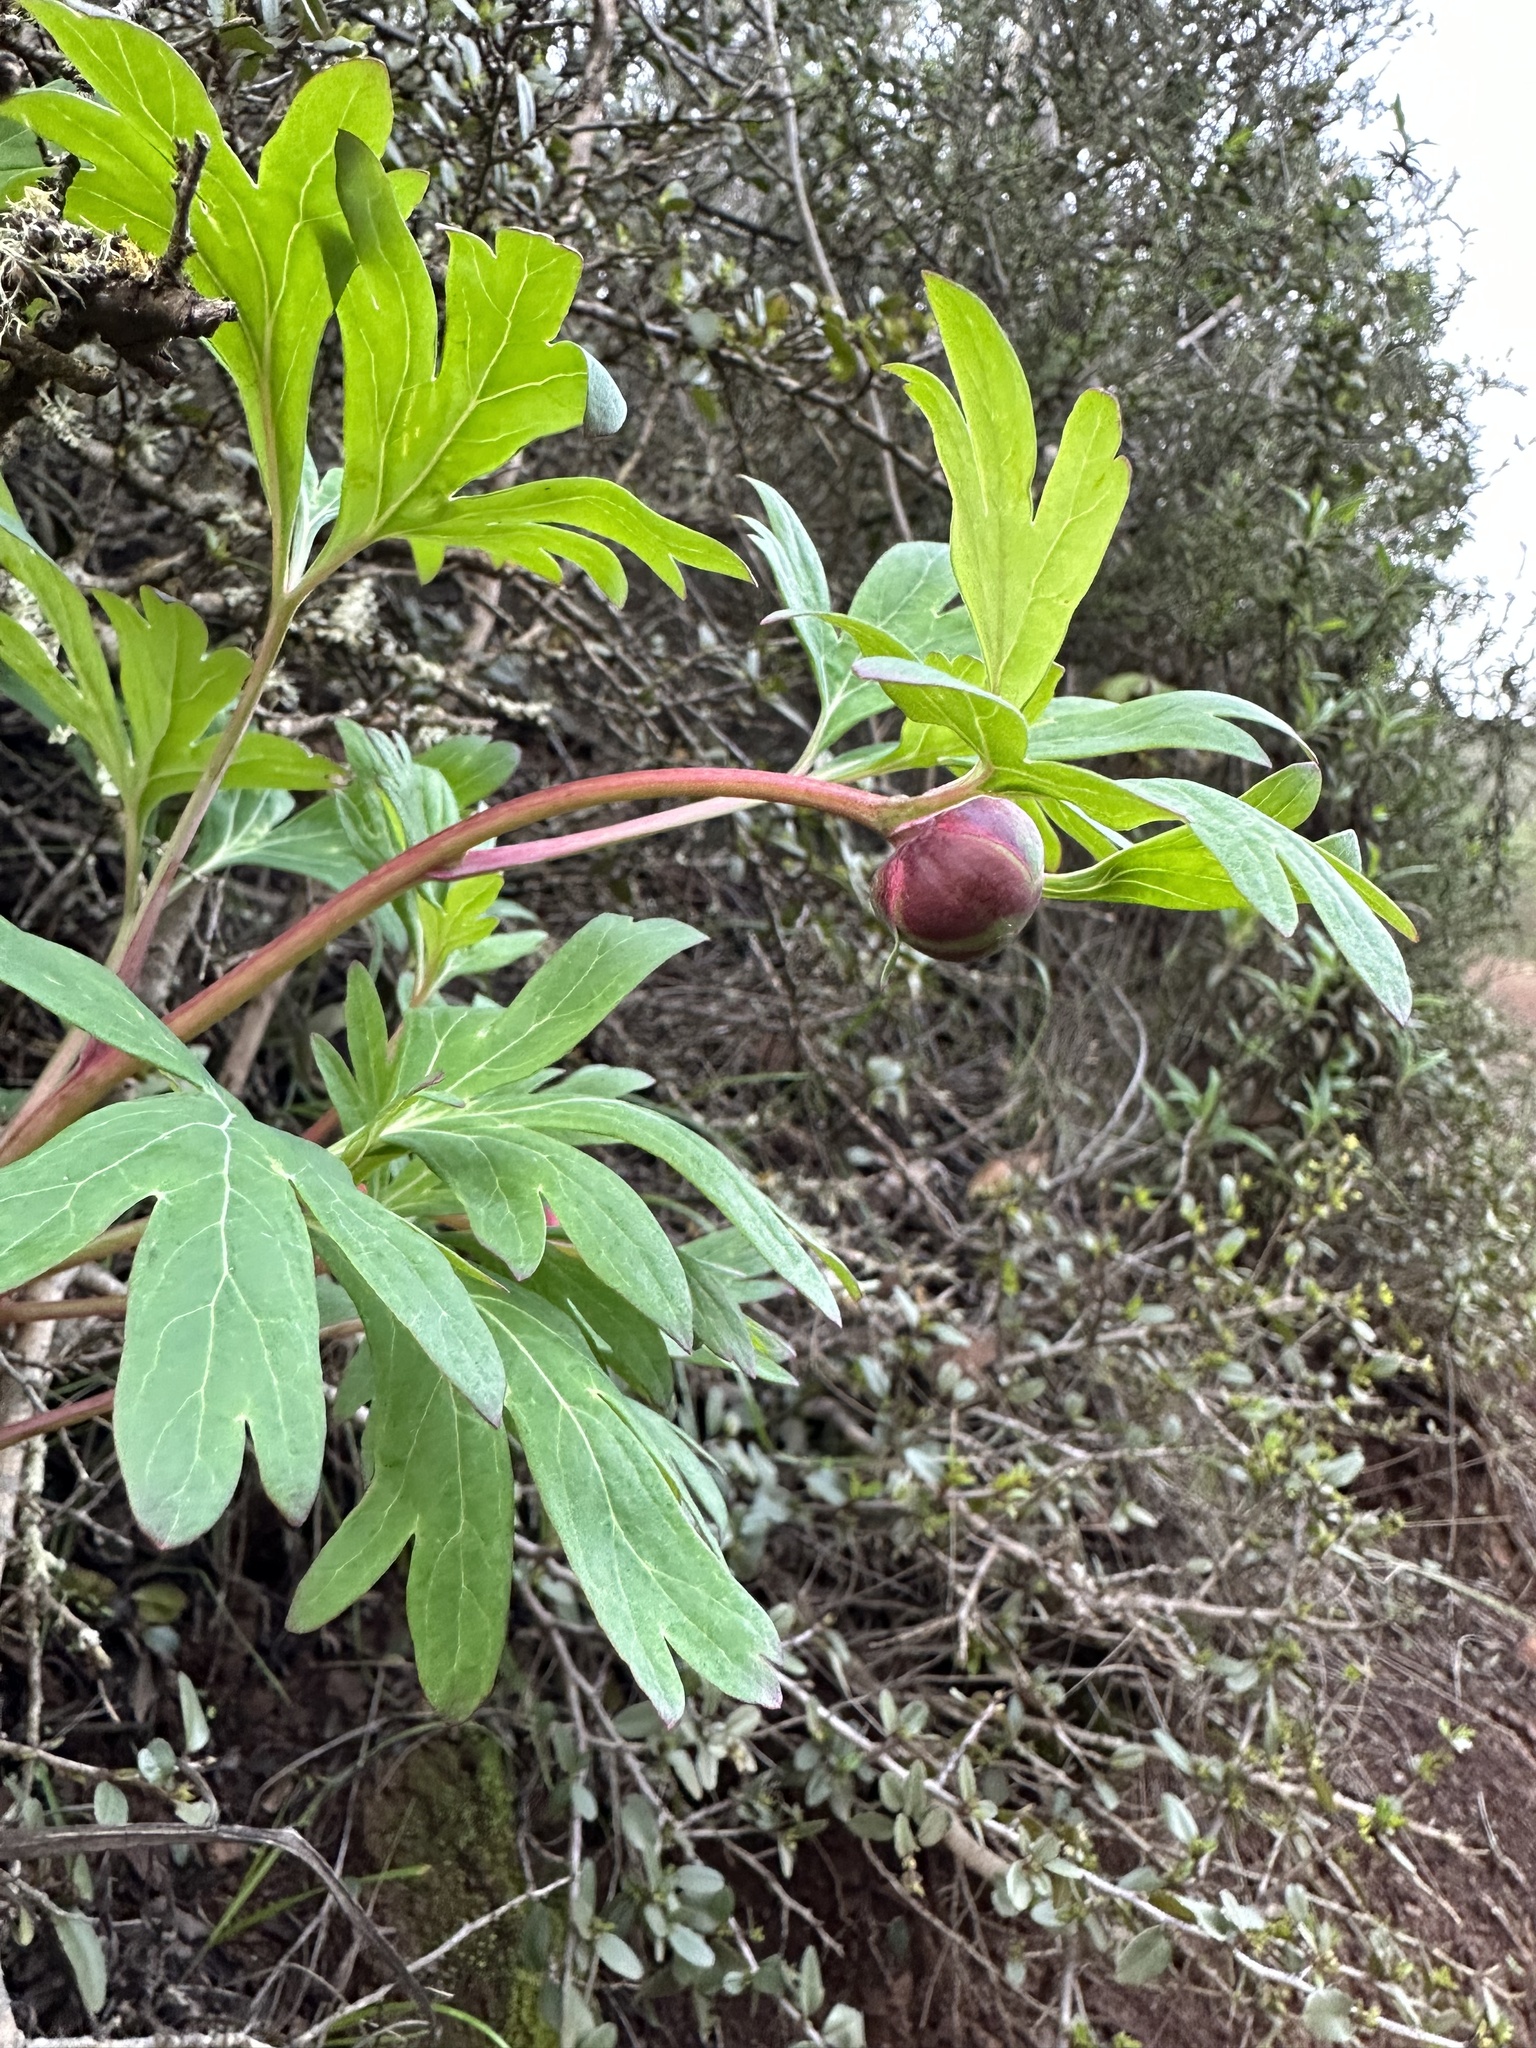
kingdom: Plantae
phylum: Tracheophyta
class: Magnoliopsida
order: Saxifragales
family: Paeoniaceae
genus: Paeonia
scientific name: Paeonia californica
